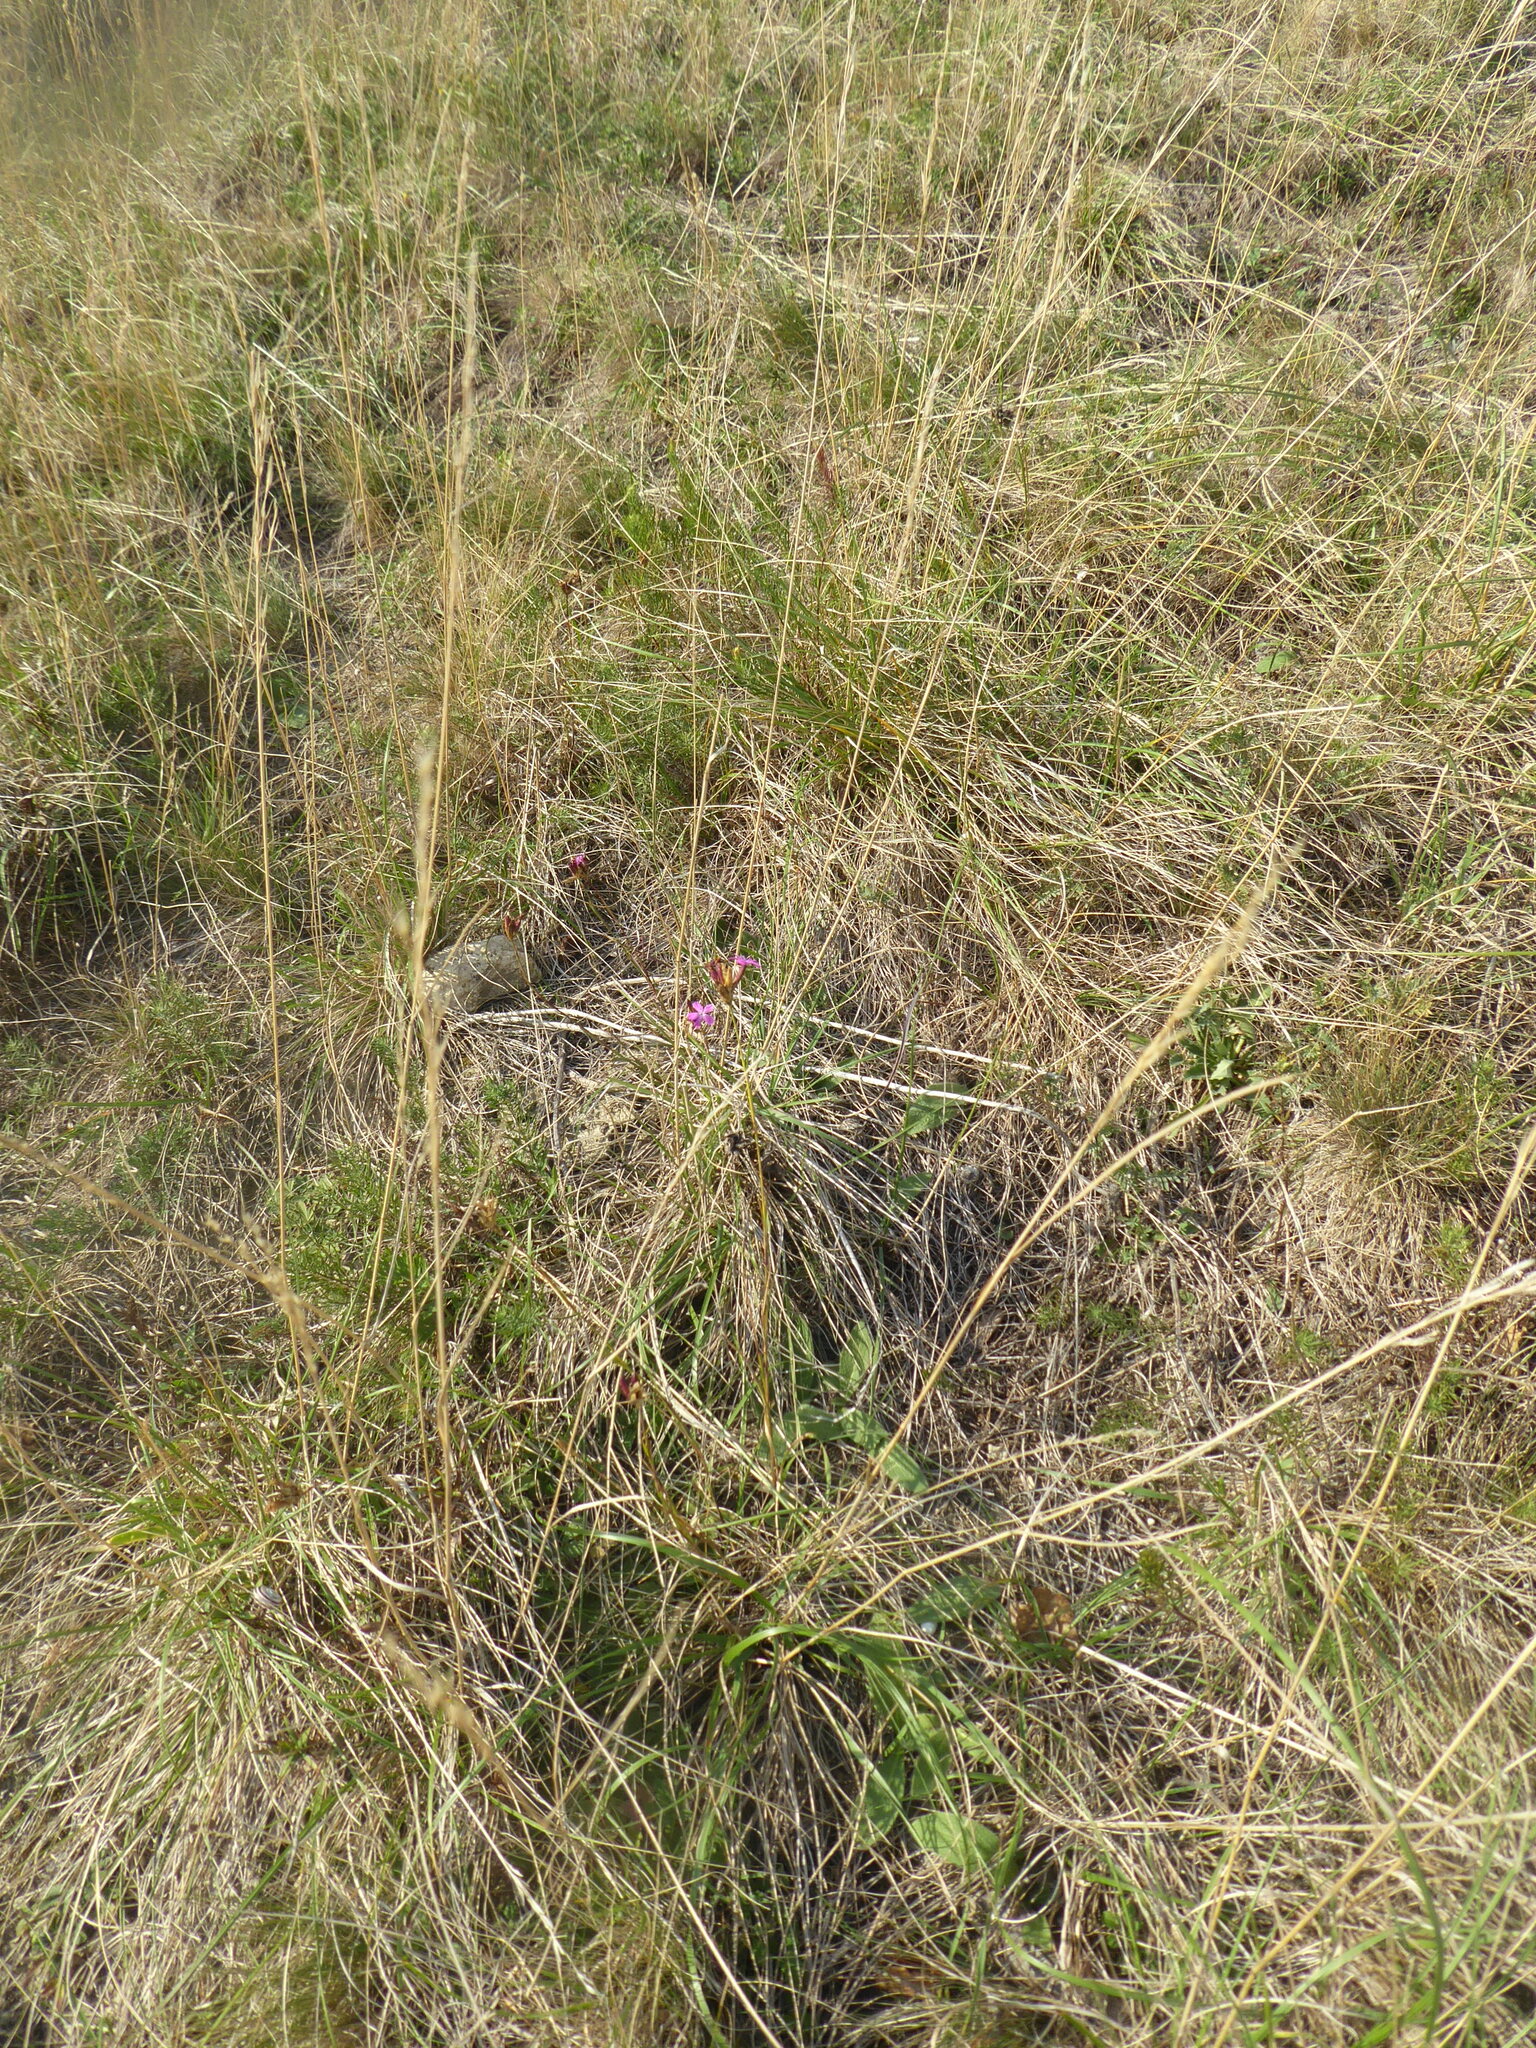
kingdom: Plantae
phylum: Tracheophyta
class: Magnoliopsida
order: Caryophyllales
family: Caryophyllaceae
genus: Dianthus
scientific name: Dianthus carthusianorum
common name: Carthusian pink
